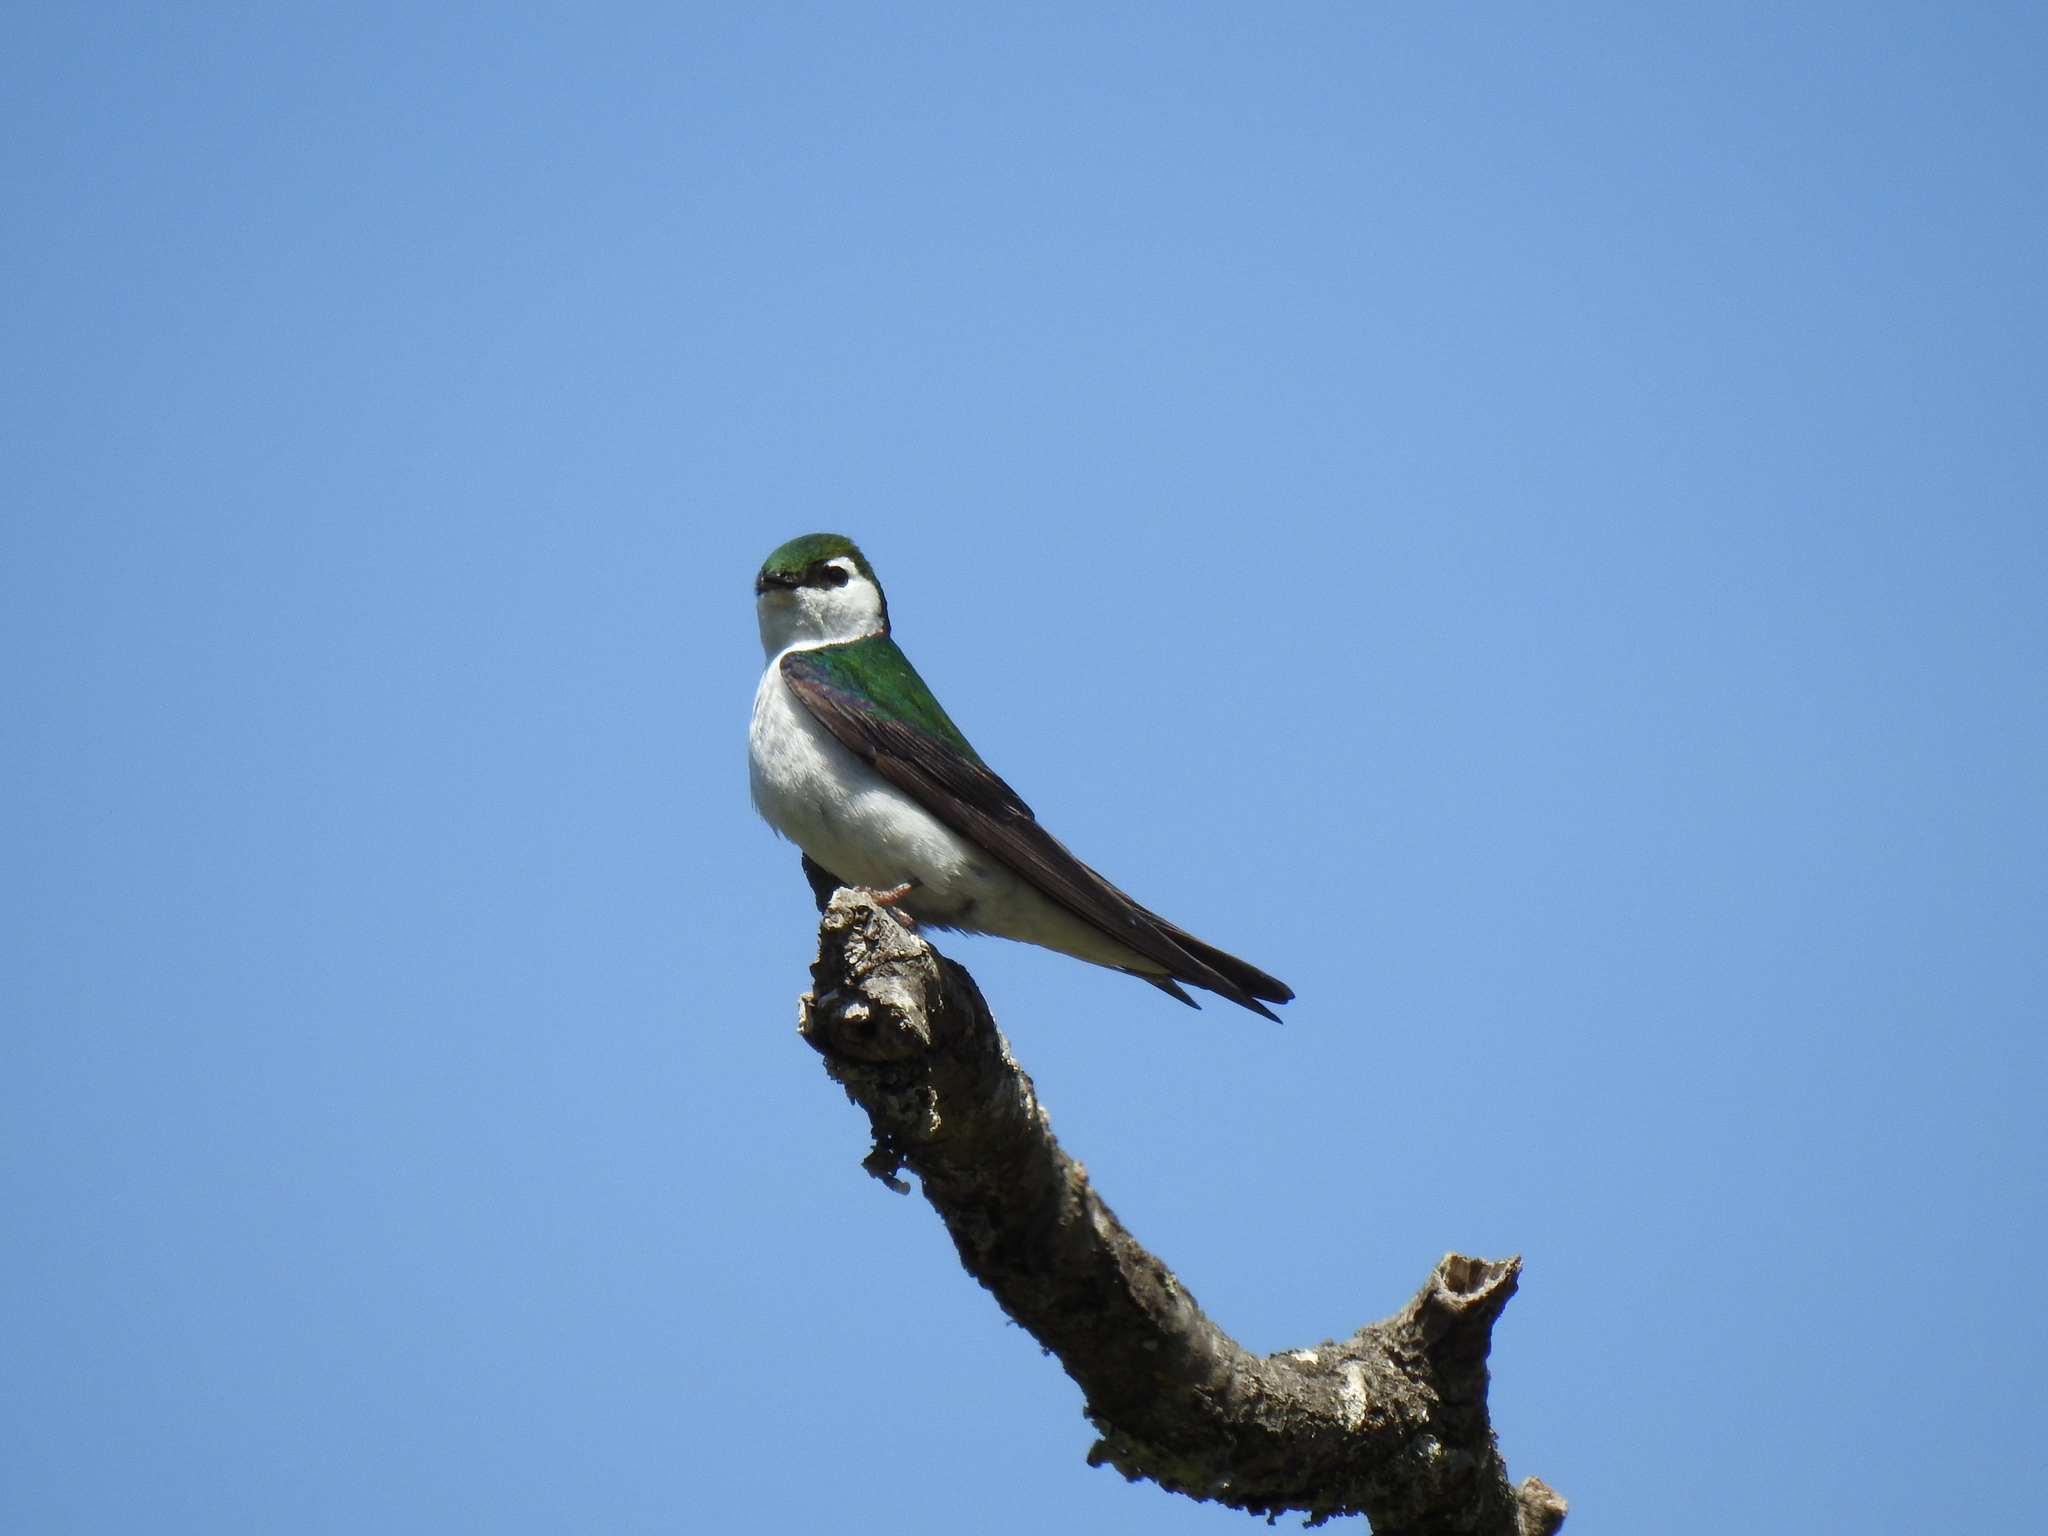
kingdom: Animalia
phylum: Chordata
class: Aves
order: Passeriformes
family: Hirundinidae
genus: Tachycineta
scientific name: Tachycineta thalassina
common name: Violet-green swallow
